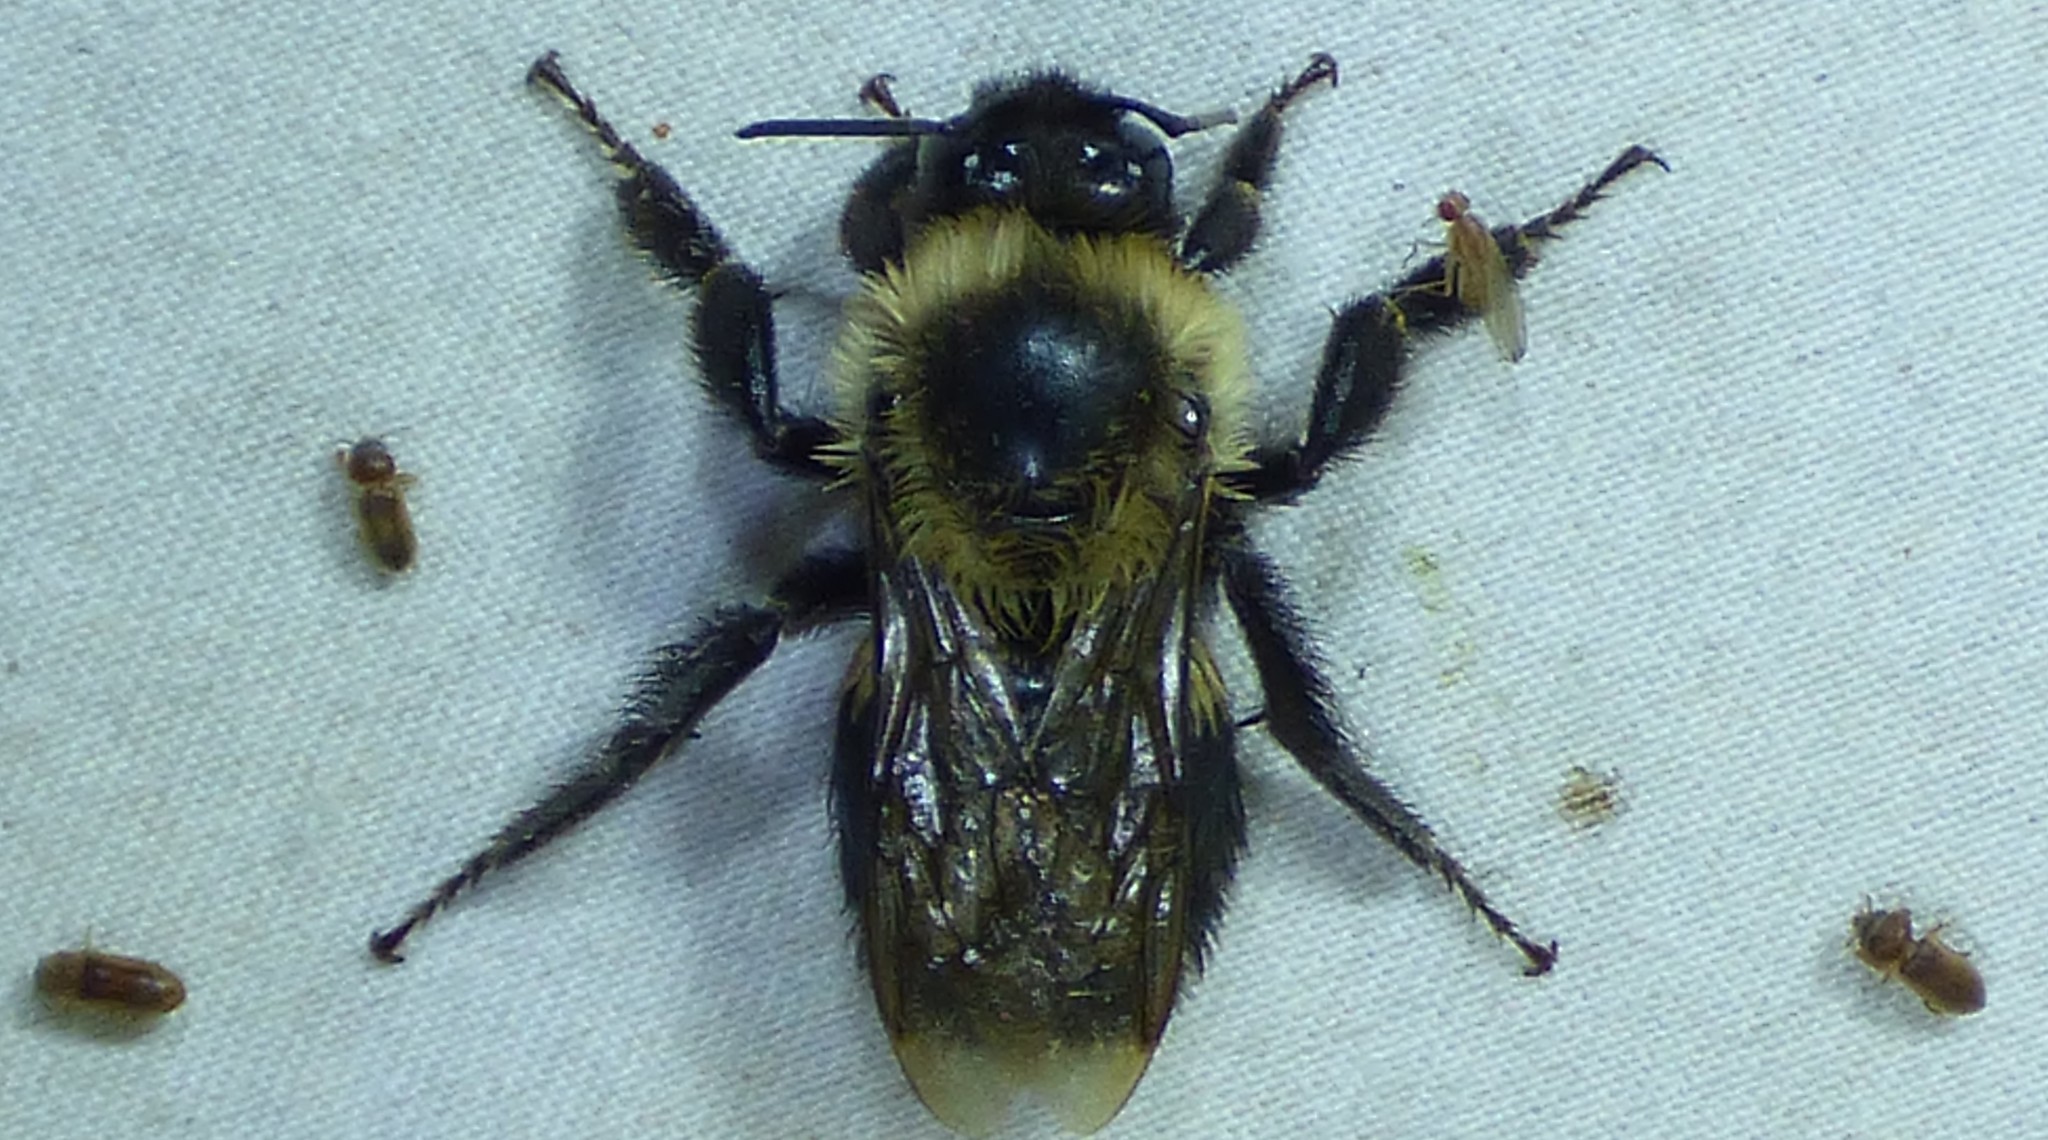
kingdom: Animalia
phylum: Arthropoda
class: Insecta
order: Hymenoptera
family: Apidae
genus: Bombus
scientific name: Bombus impatiens
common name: Common eastern bumble bee
